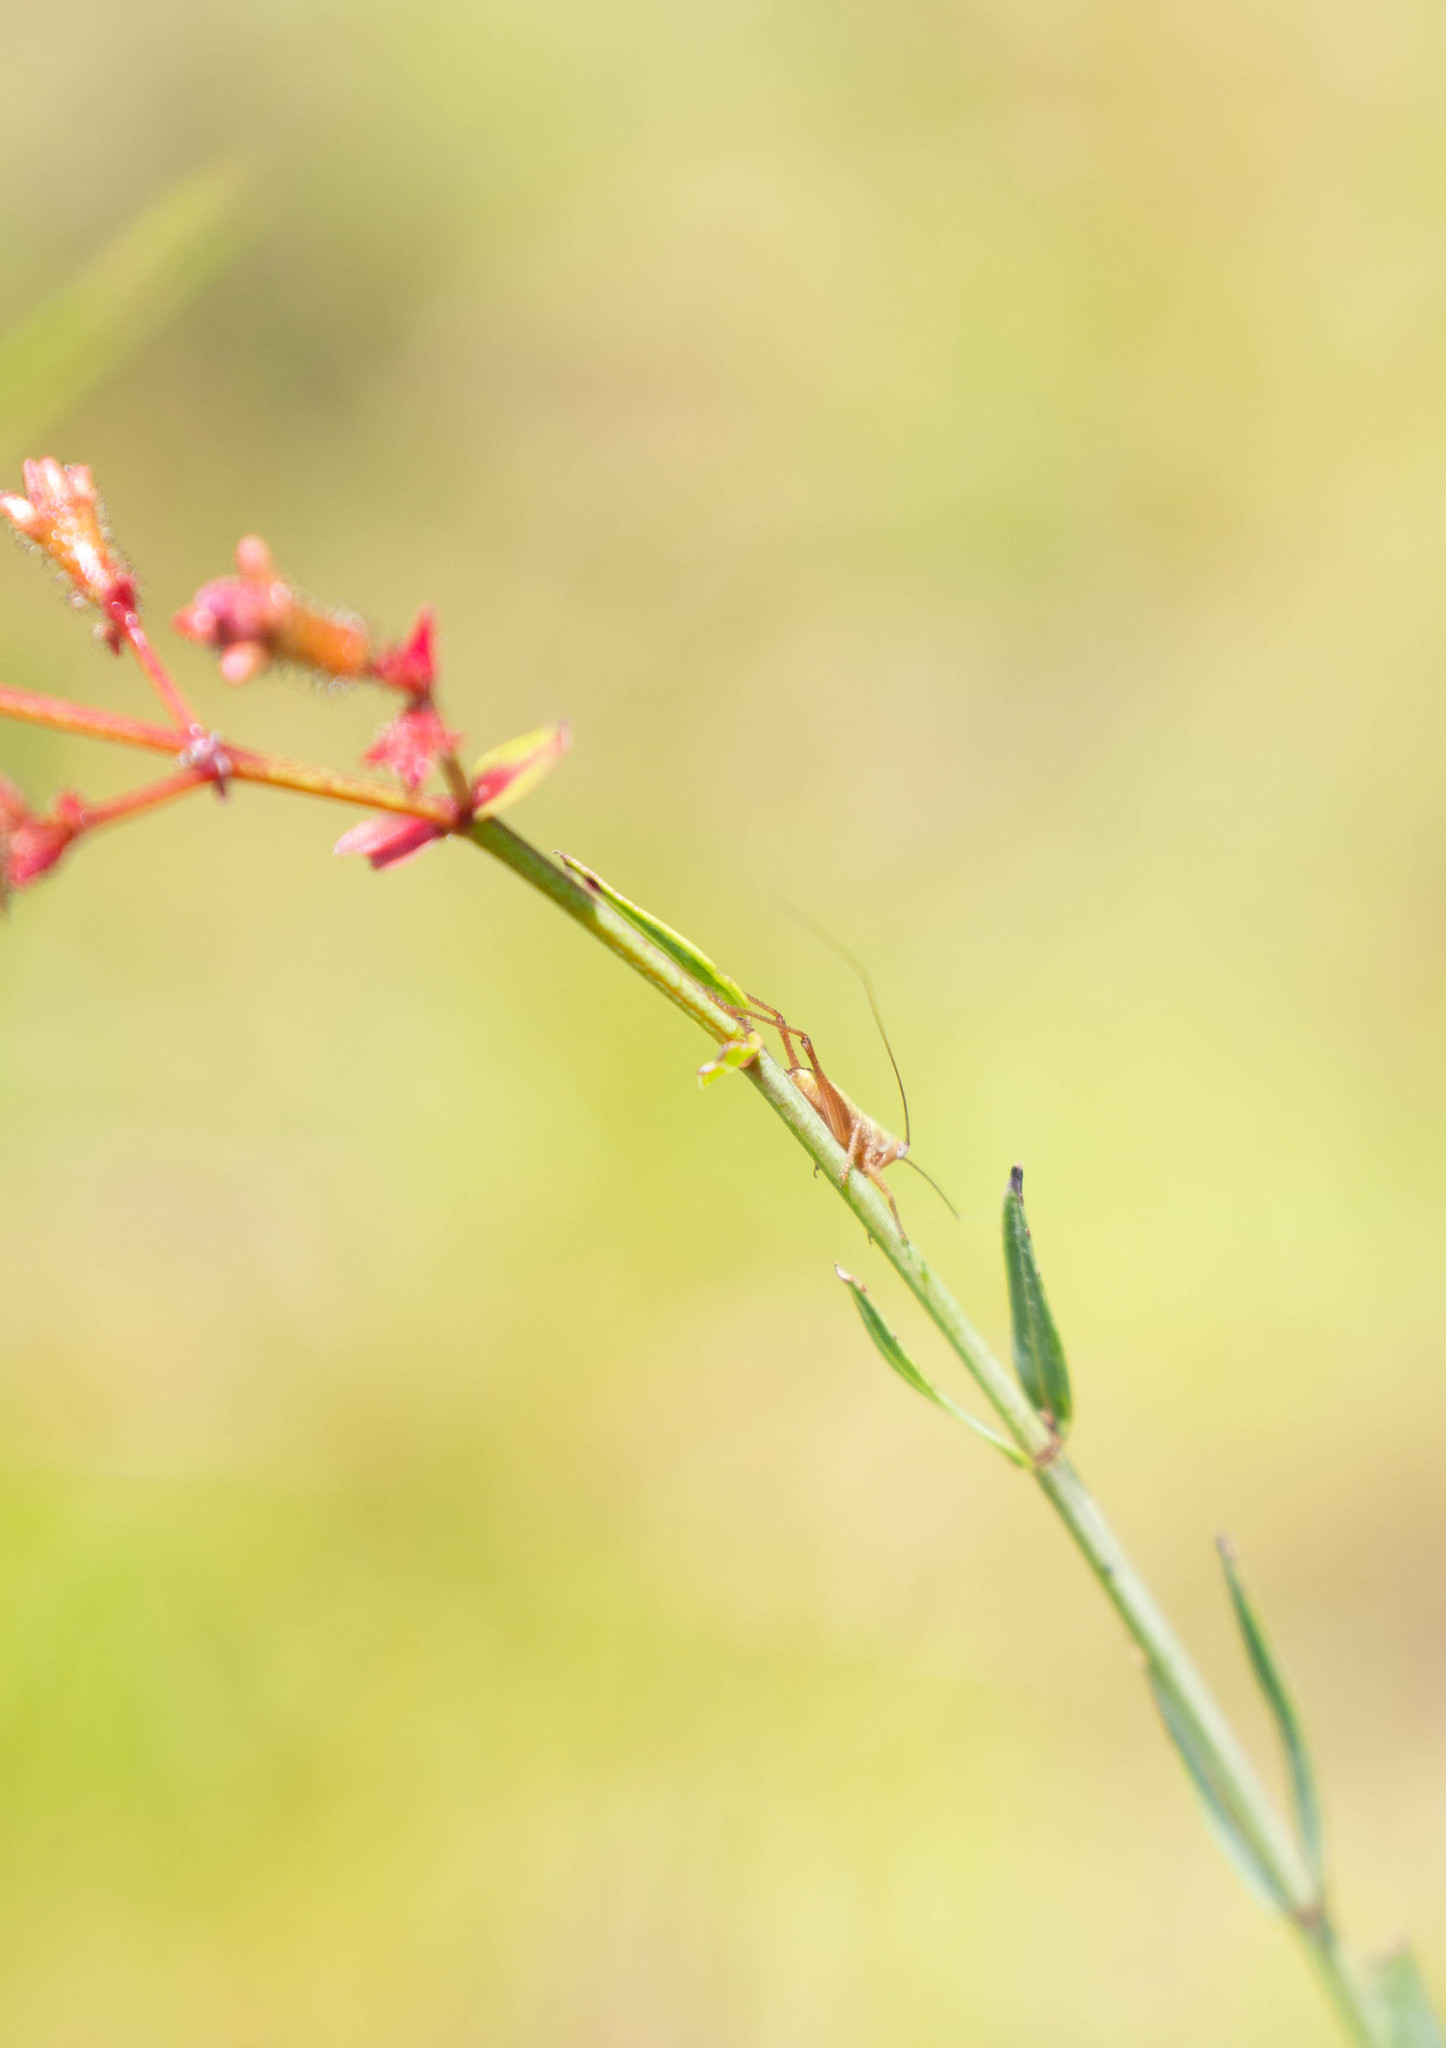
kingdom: Plantae
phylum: Tracheophyta
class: Magnoliopsida
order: Myrtales
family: Melastomataceae
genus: Rhexia
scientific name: Rhexia alifanus
